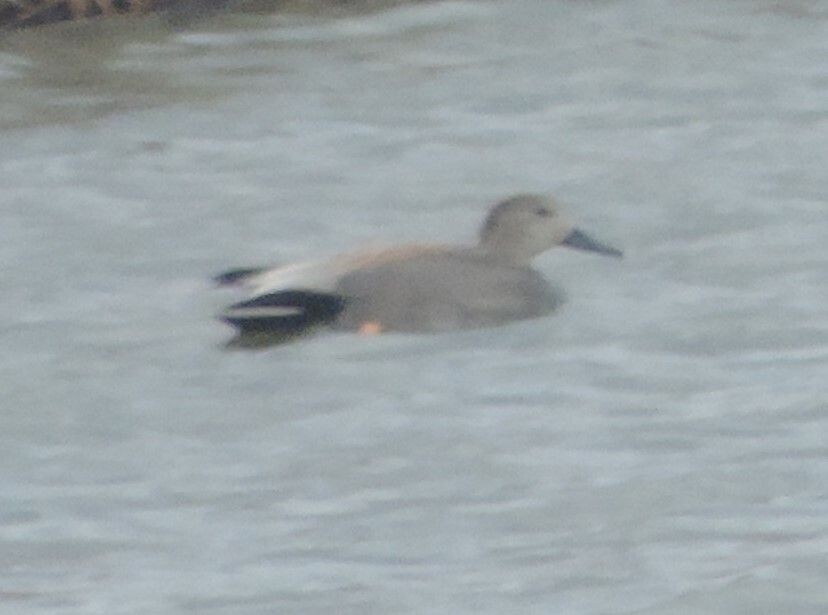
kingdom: Animalia
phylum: Chordata
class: Aves
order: Anseriformes
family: Anatidae
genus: Mareca
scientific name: Mareca strepera
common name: Gadwall
